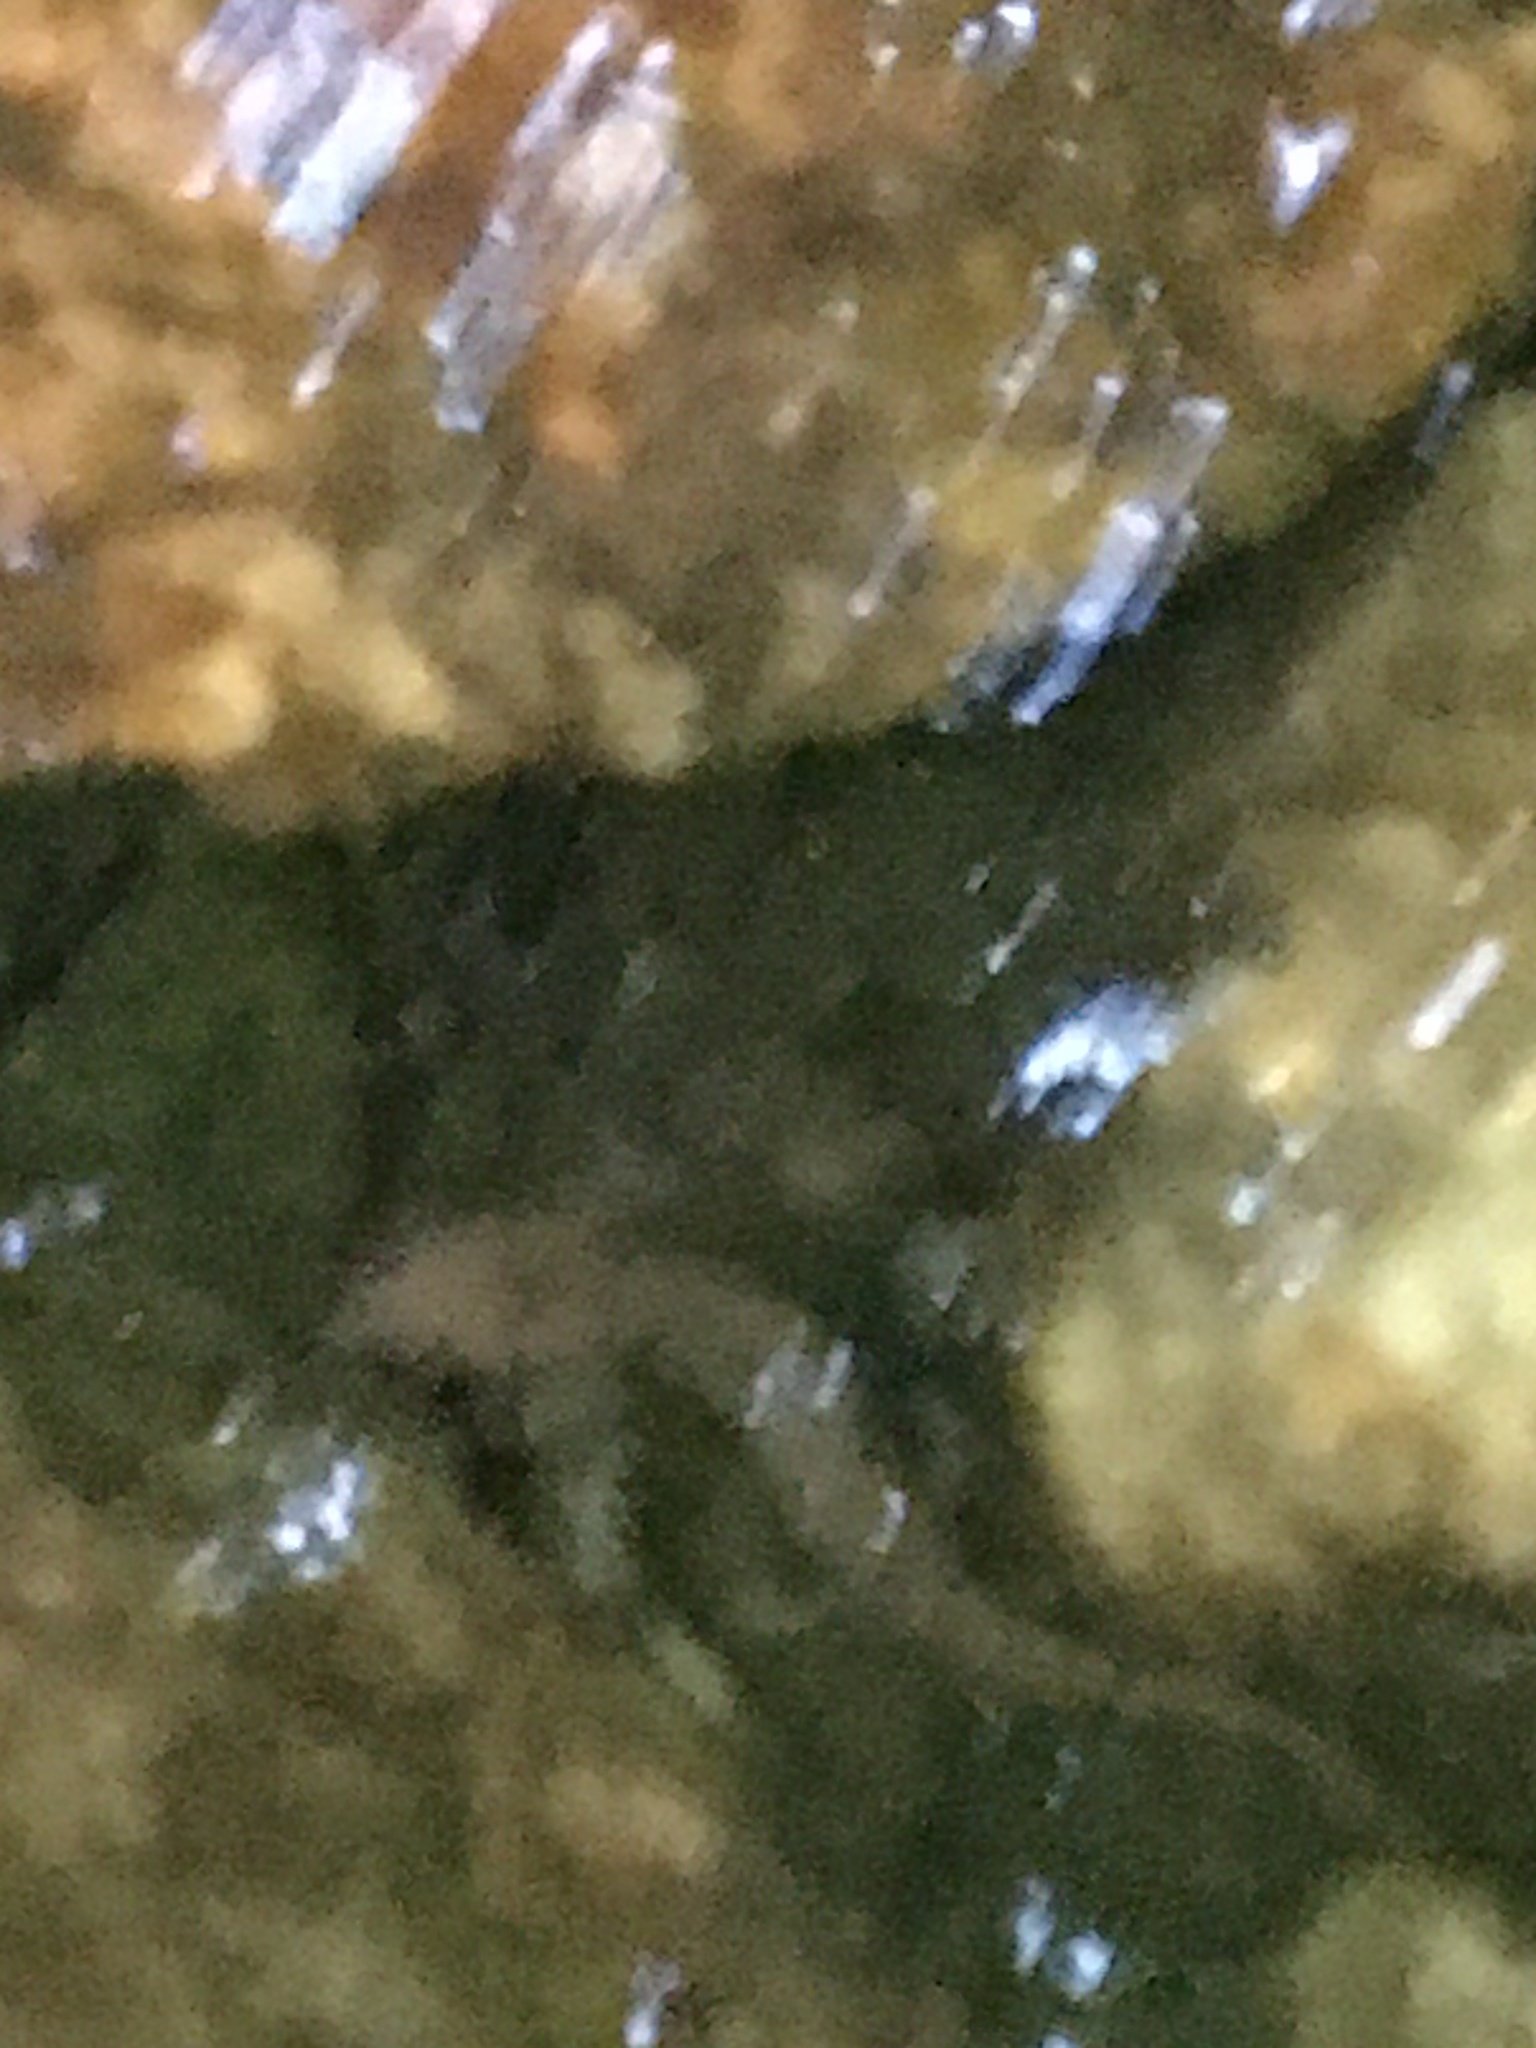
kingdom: Animalia
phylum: Chordata
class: Amphibia
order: Caudata
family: Plethodontidae
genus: Eurycea
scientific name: Eurycea bislineata
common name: Northern two-lined salamander
